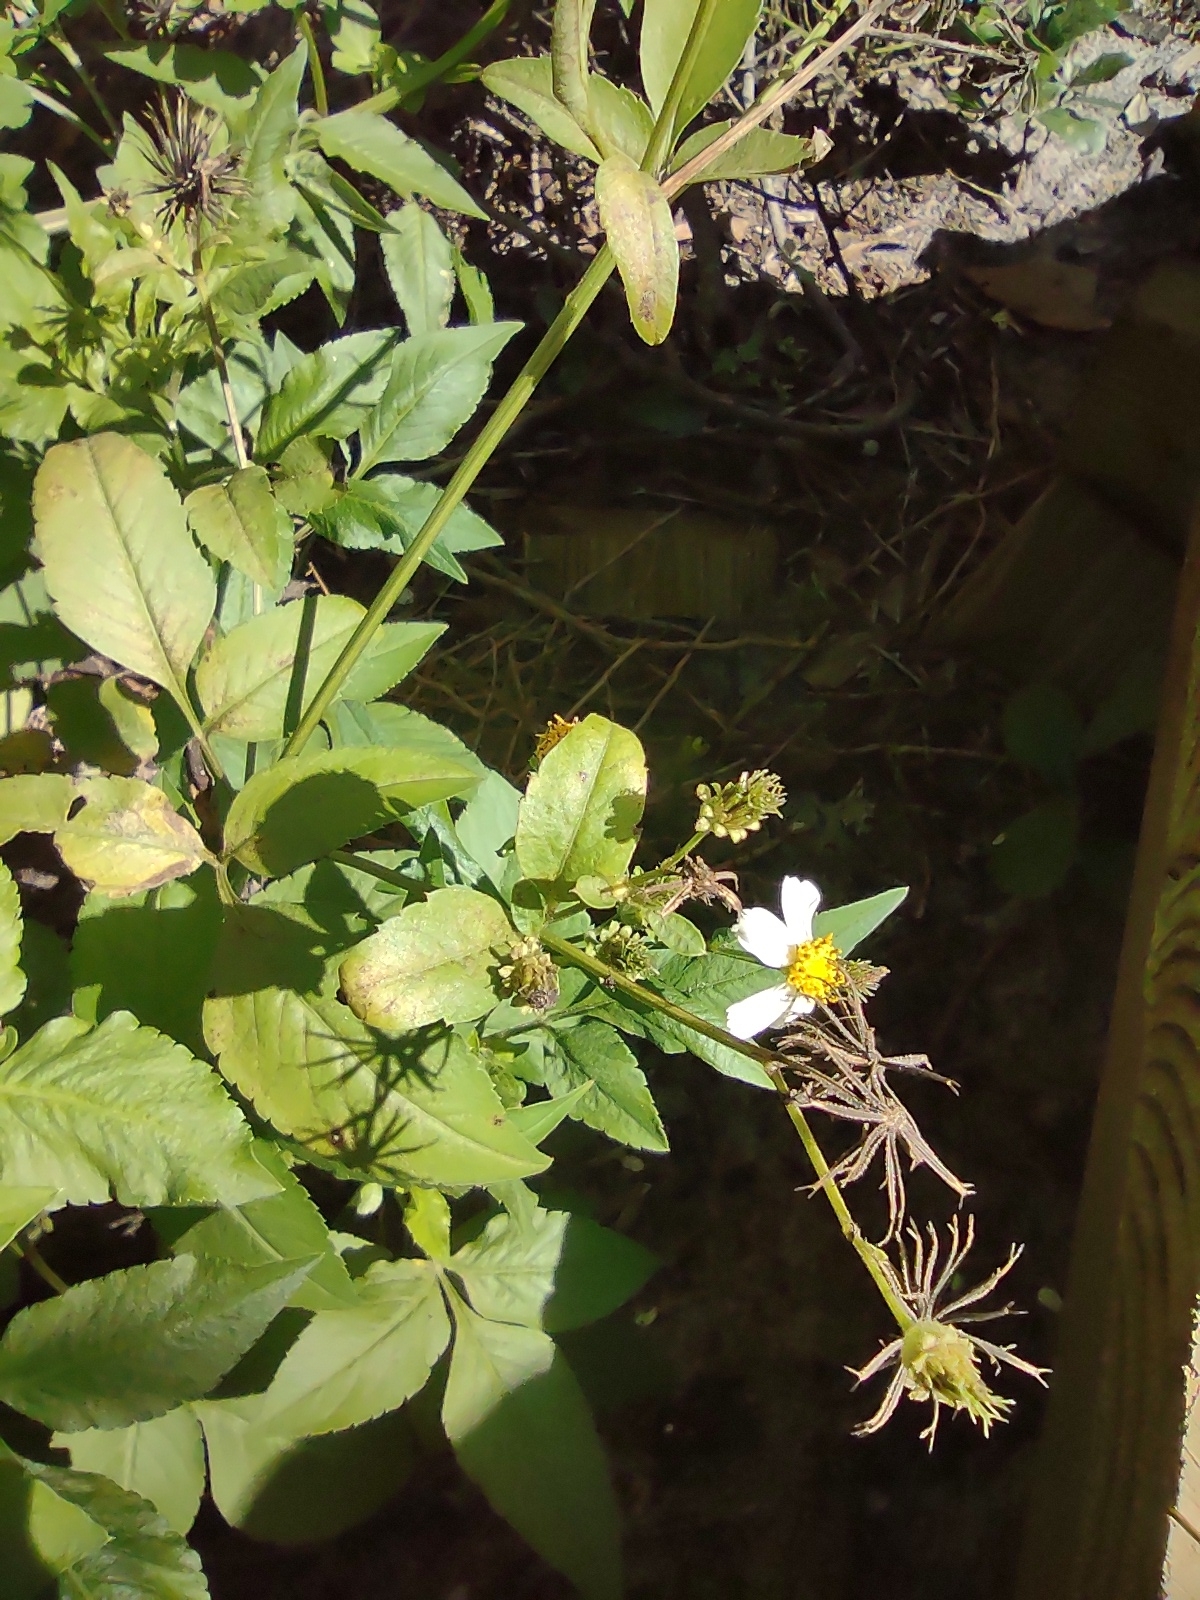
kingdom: Plantae
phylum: Tracheophyta
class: Magnoliopsida
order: Asterales
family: Asteraceae
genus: Bidens
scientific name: Bidens alba
